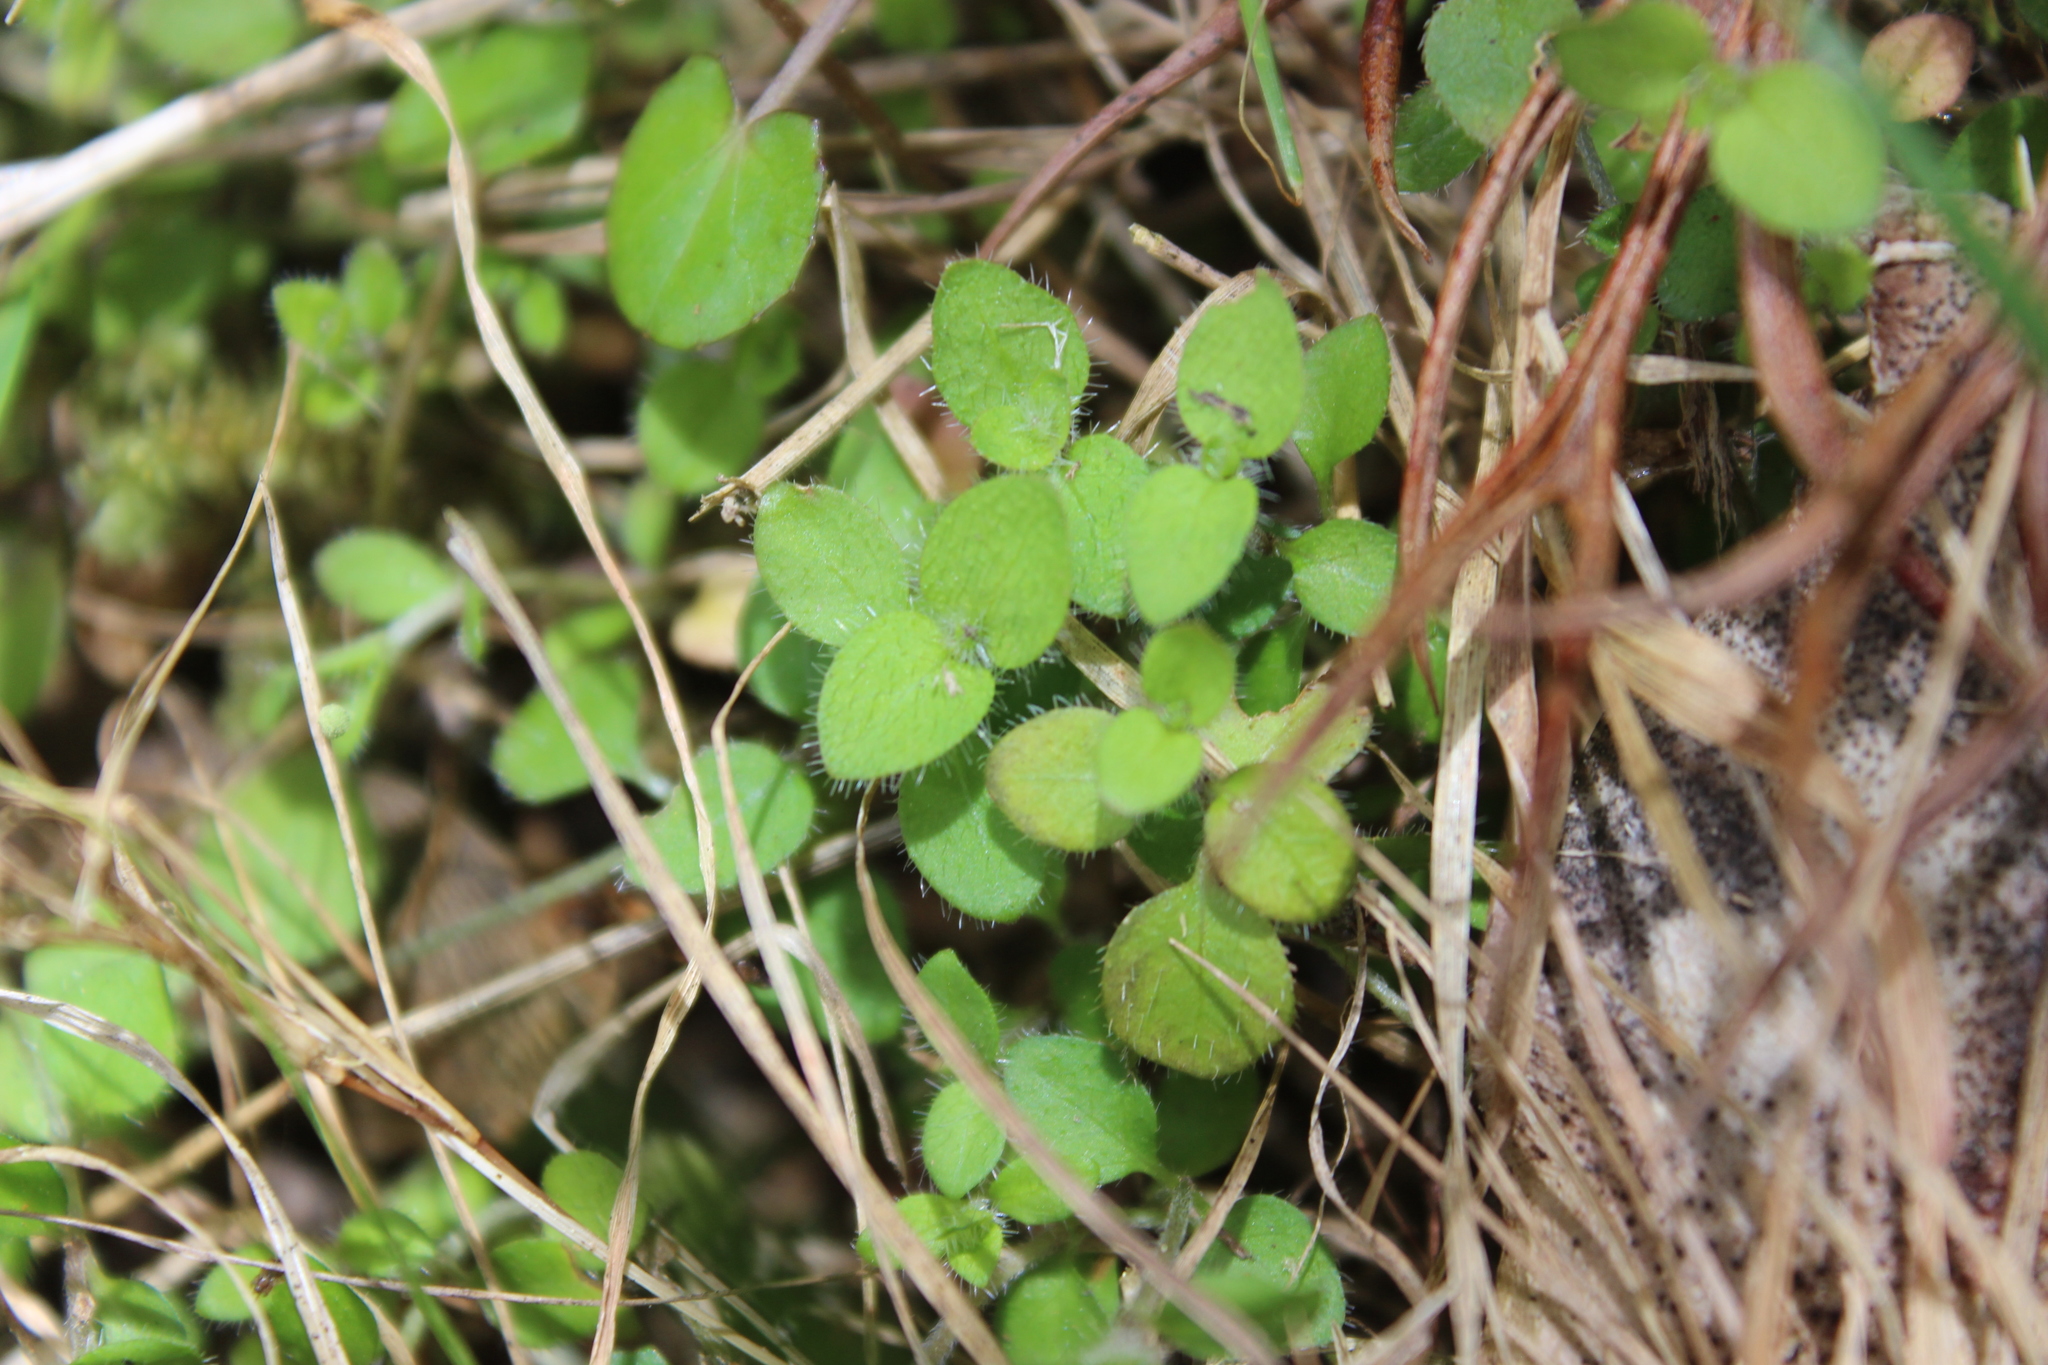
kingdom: Plantae
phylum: Tracheophyta
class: Magnoliopsida
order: Gentianales
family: Rubiaceae
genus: Leptostigma
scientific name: Leptostigma setulosum
